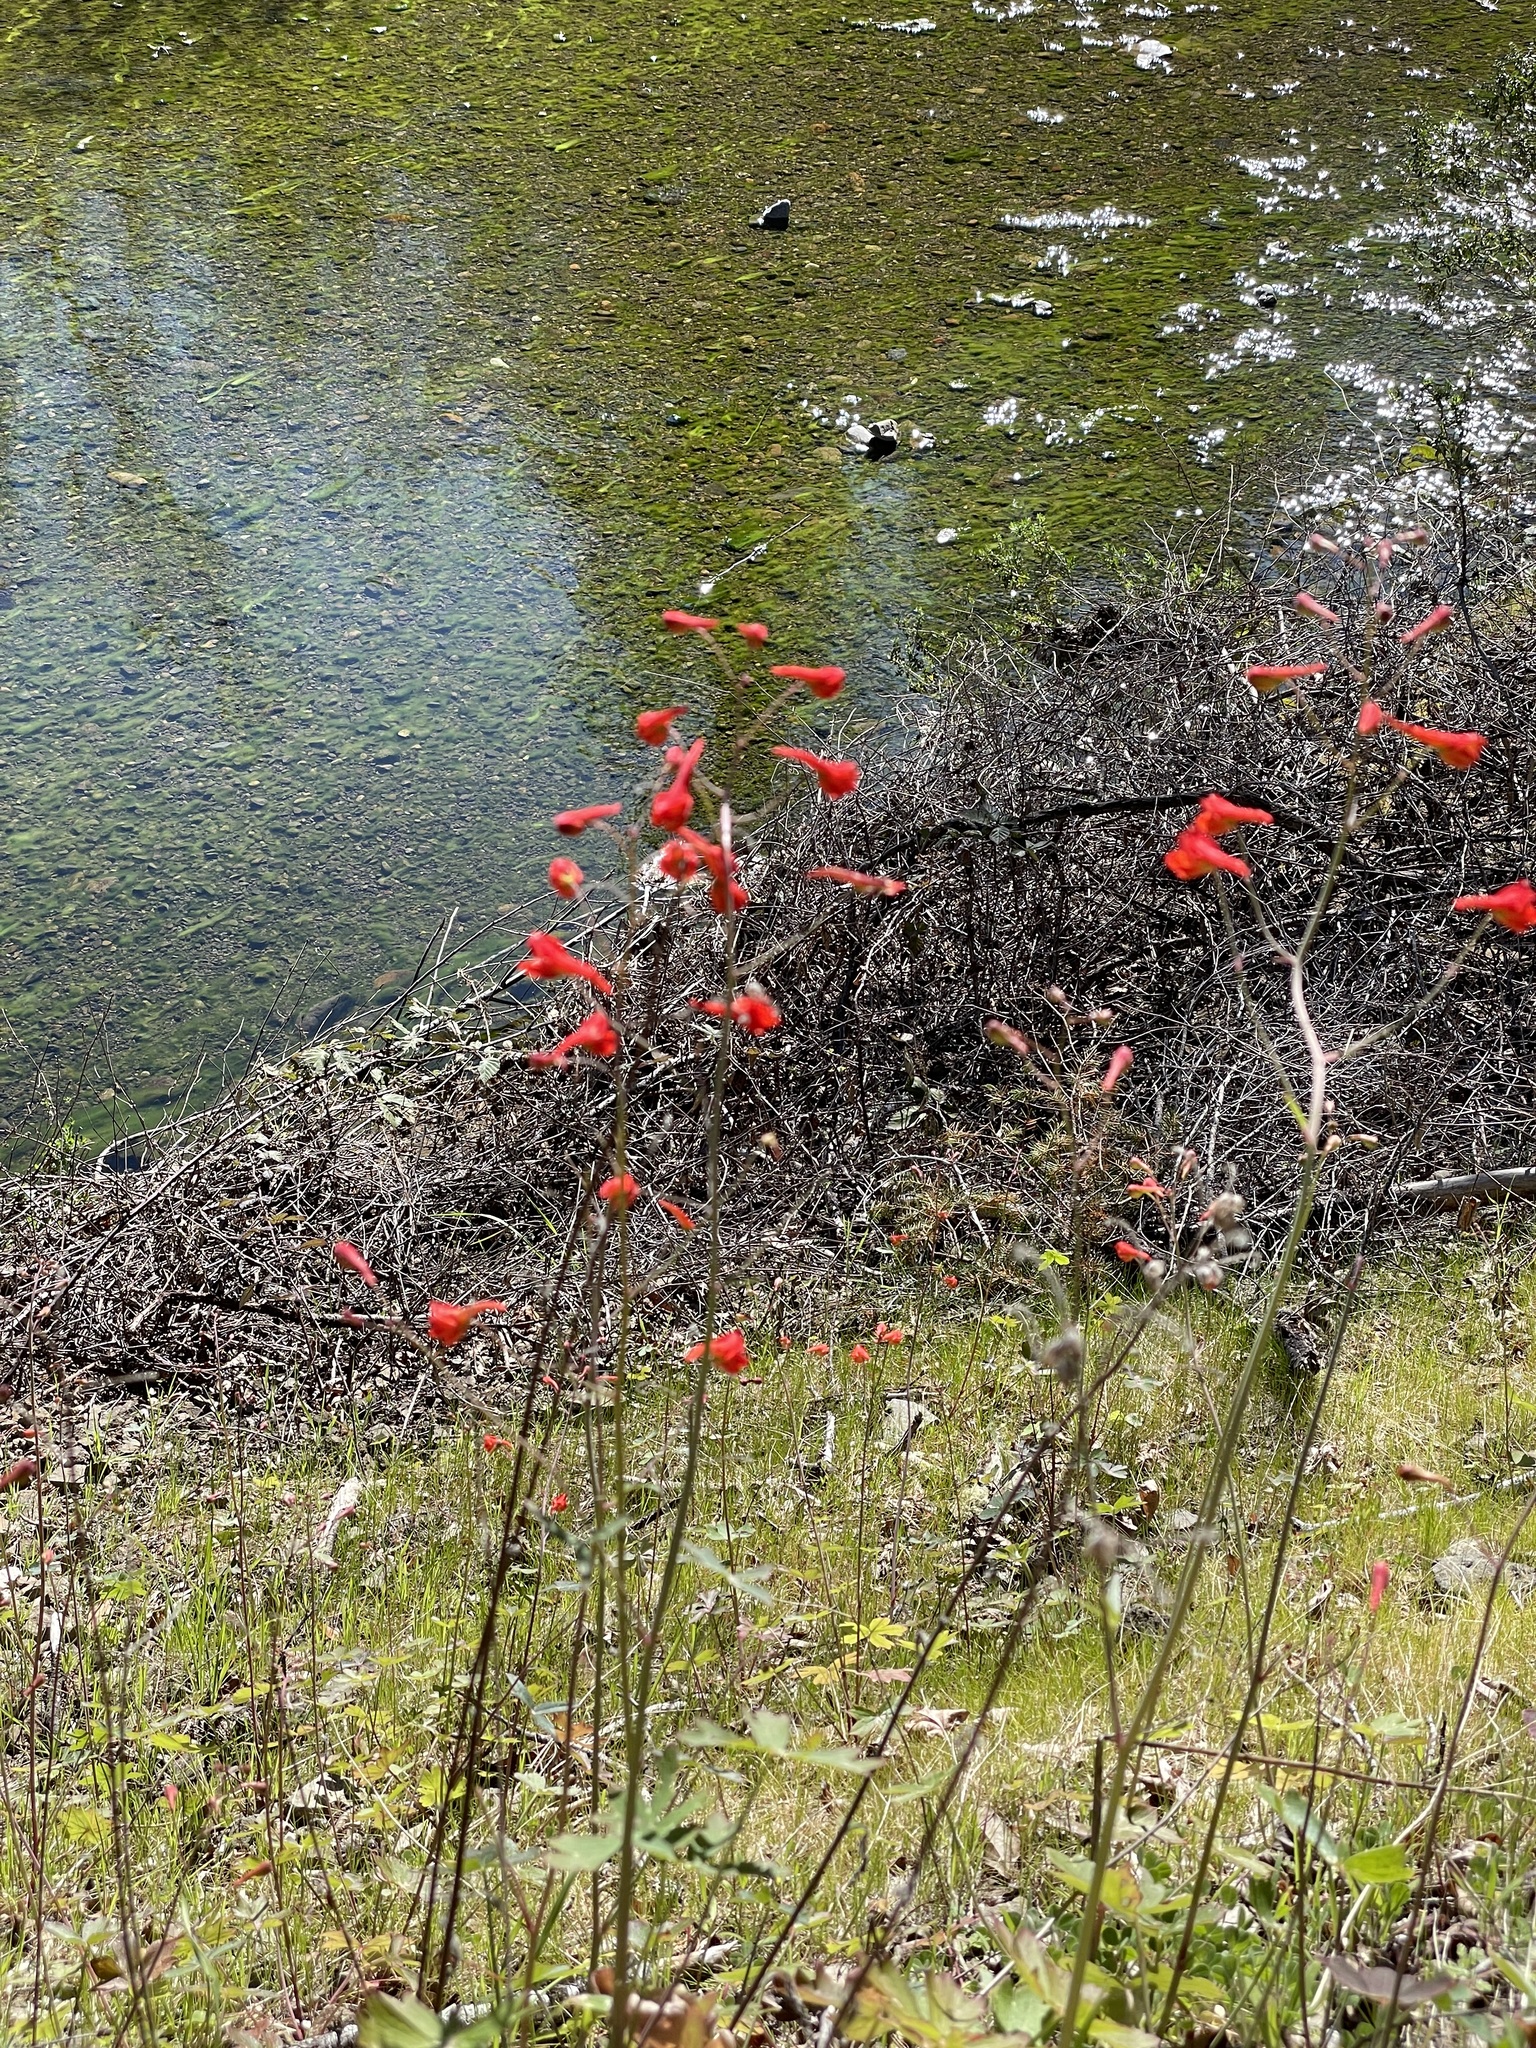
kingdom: Plantae
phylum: Tracheophyta
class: Magnoliopsida
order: Ranunculales
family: Ranunculaceae
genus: Delphinium
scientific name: Delphinium nudicaule
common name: Red larkspur
